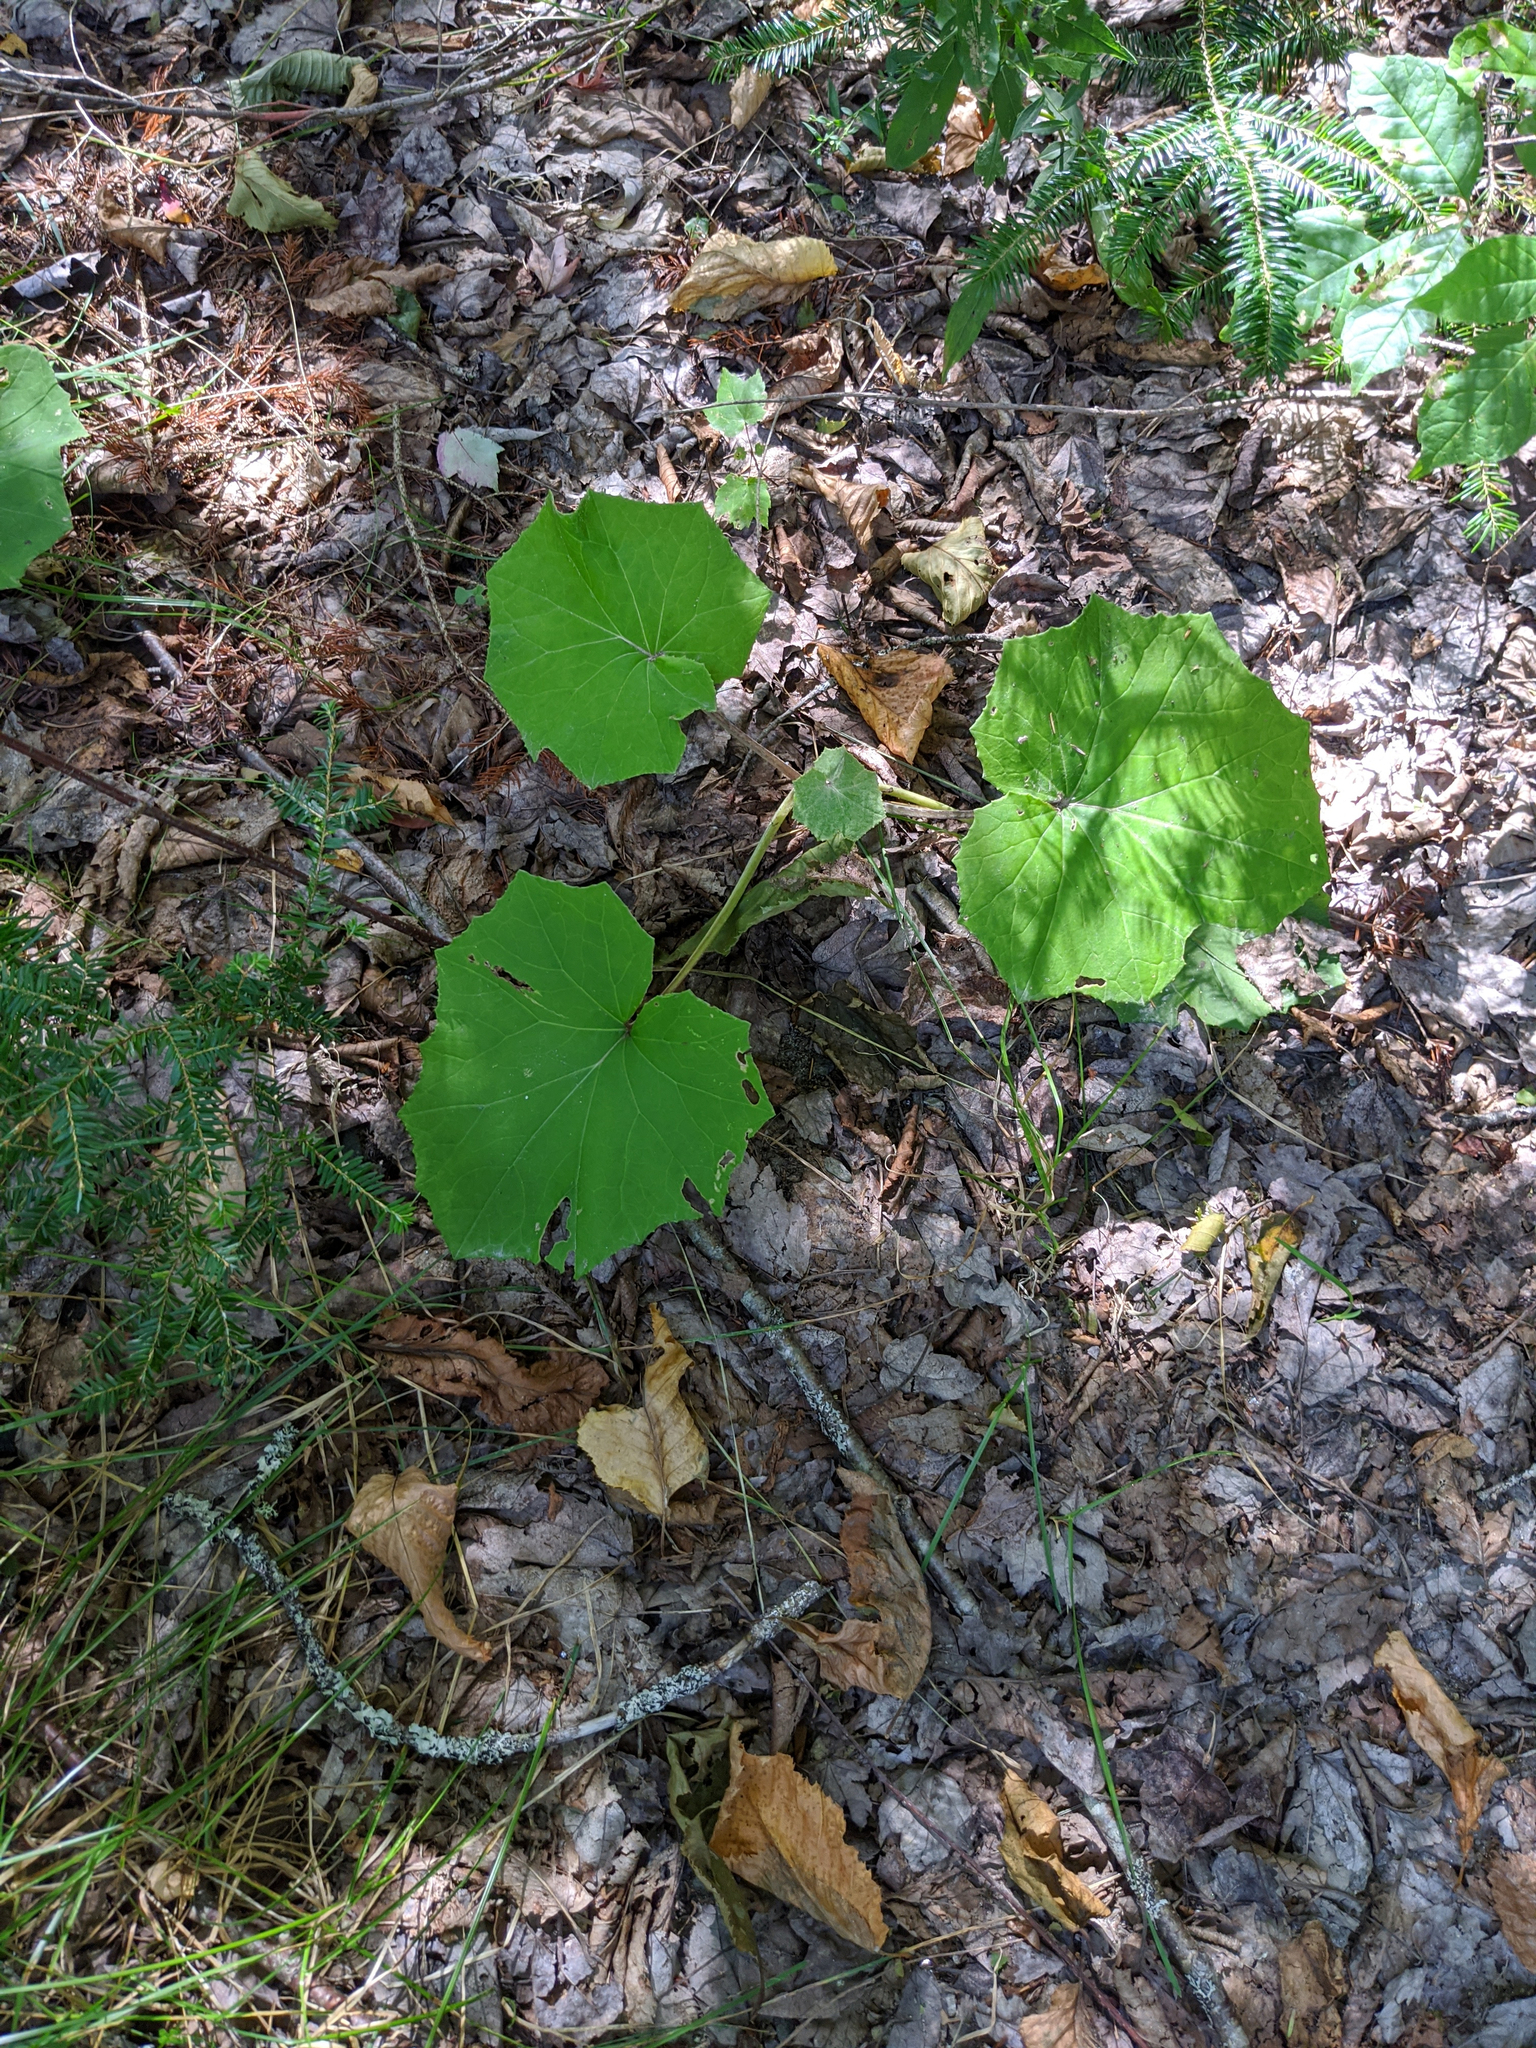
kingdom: Plantae
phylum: Tracheophyta
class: Magnoliopsida
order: Asterales
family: Asteraceae
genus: Tussilago
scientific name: Tussilago farfara
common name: Coltsfoot
